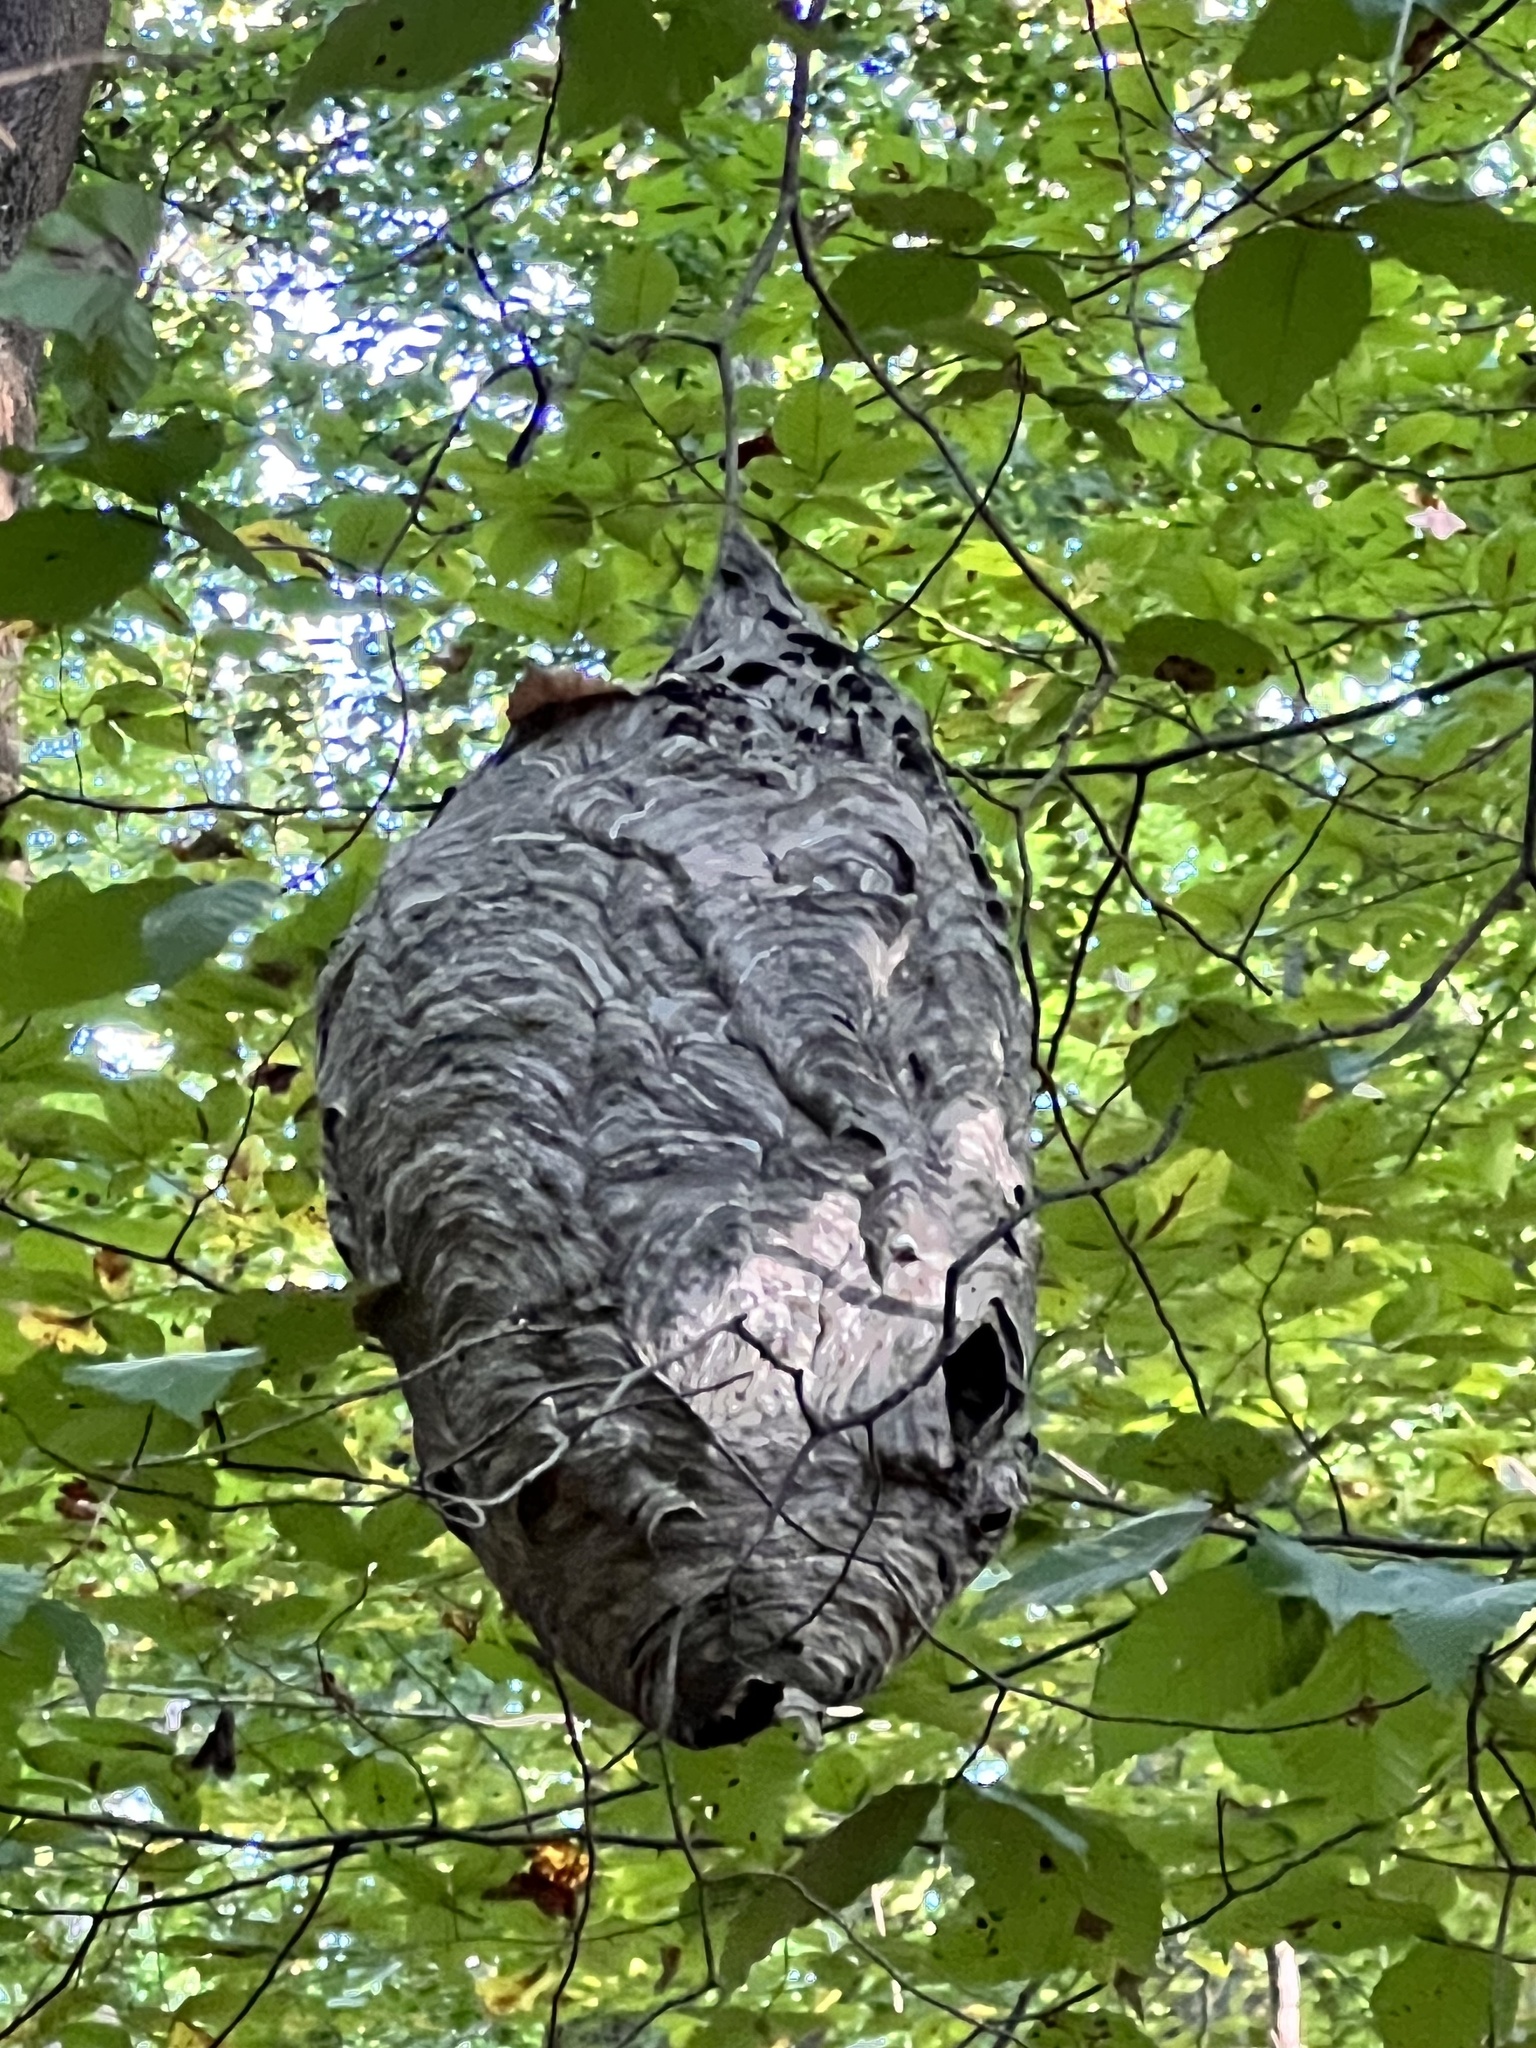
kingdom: Animalia
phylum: Arthropoda
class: Insecta
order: Hymenoptera
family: Vespidae
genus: Dolichovespula
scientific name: Dolichovespula maculata
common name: Bald-faced hornet
